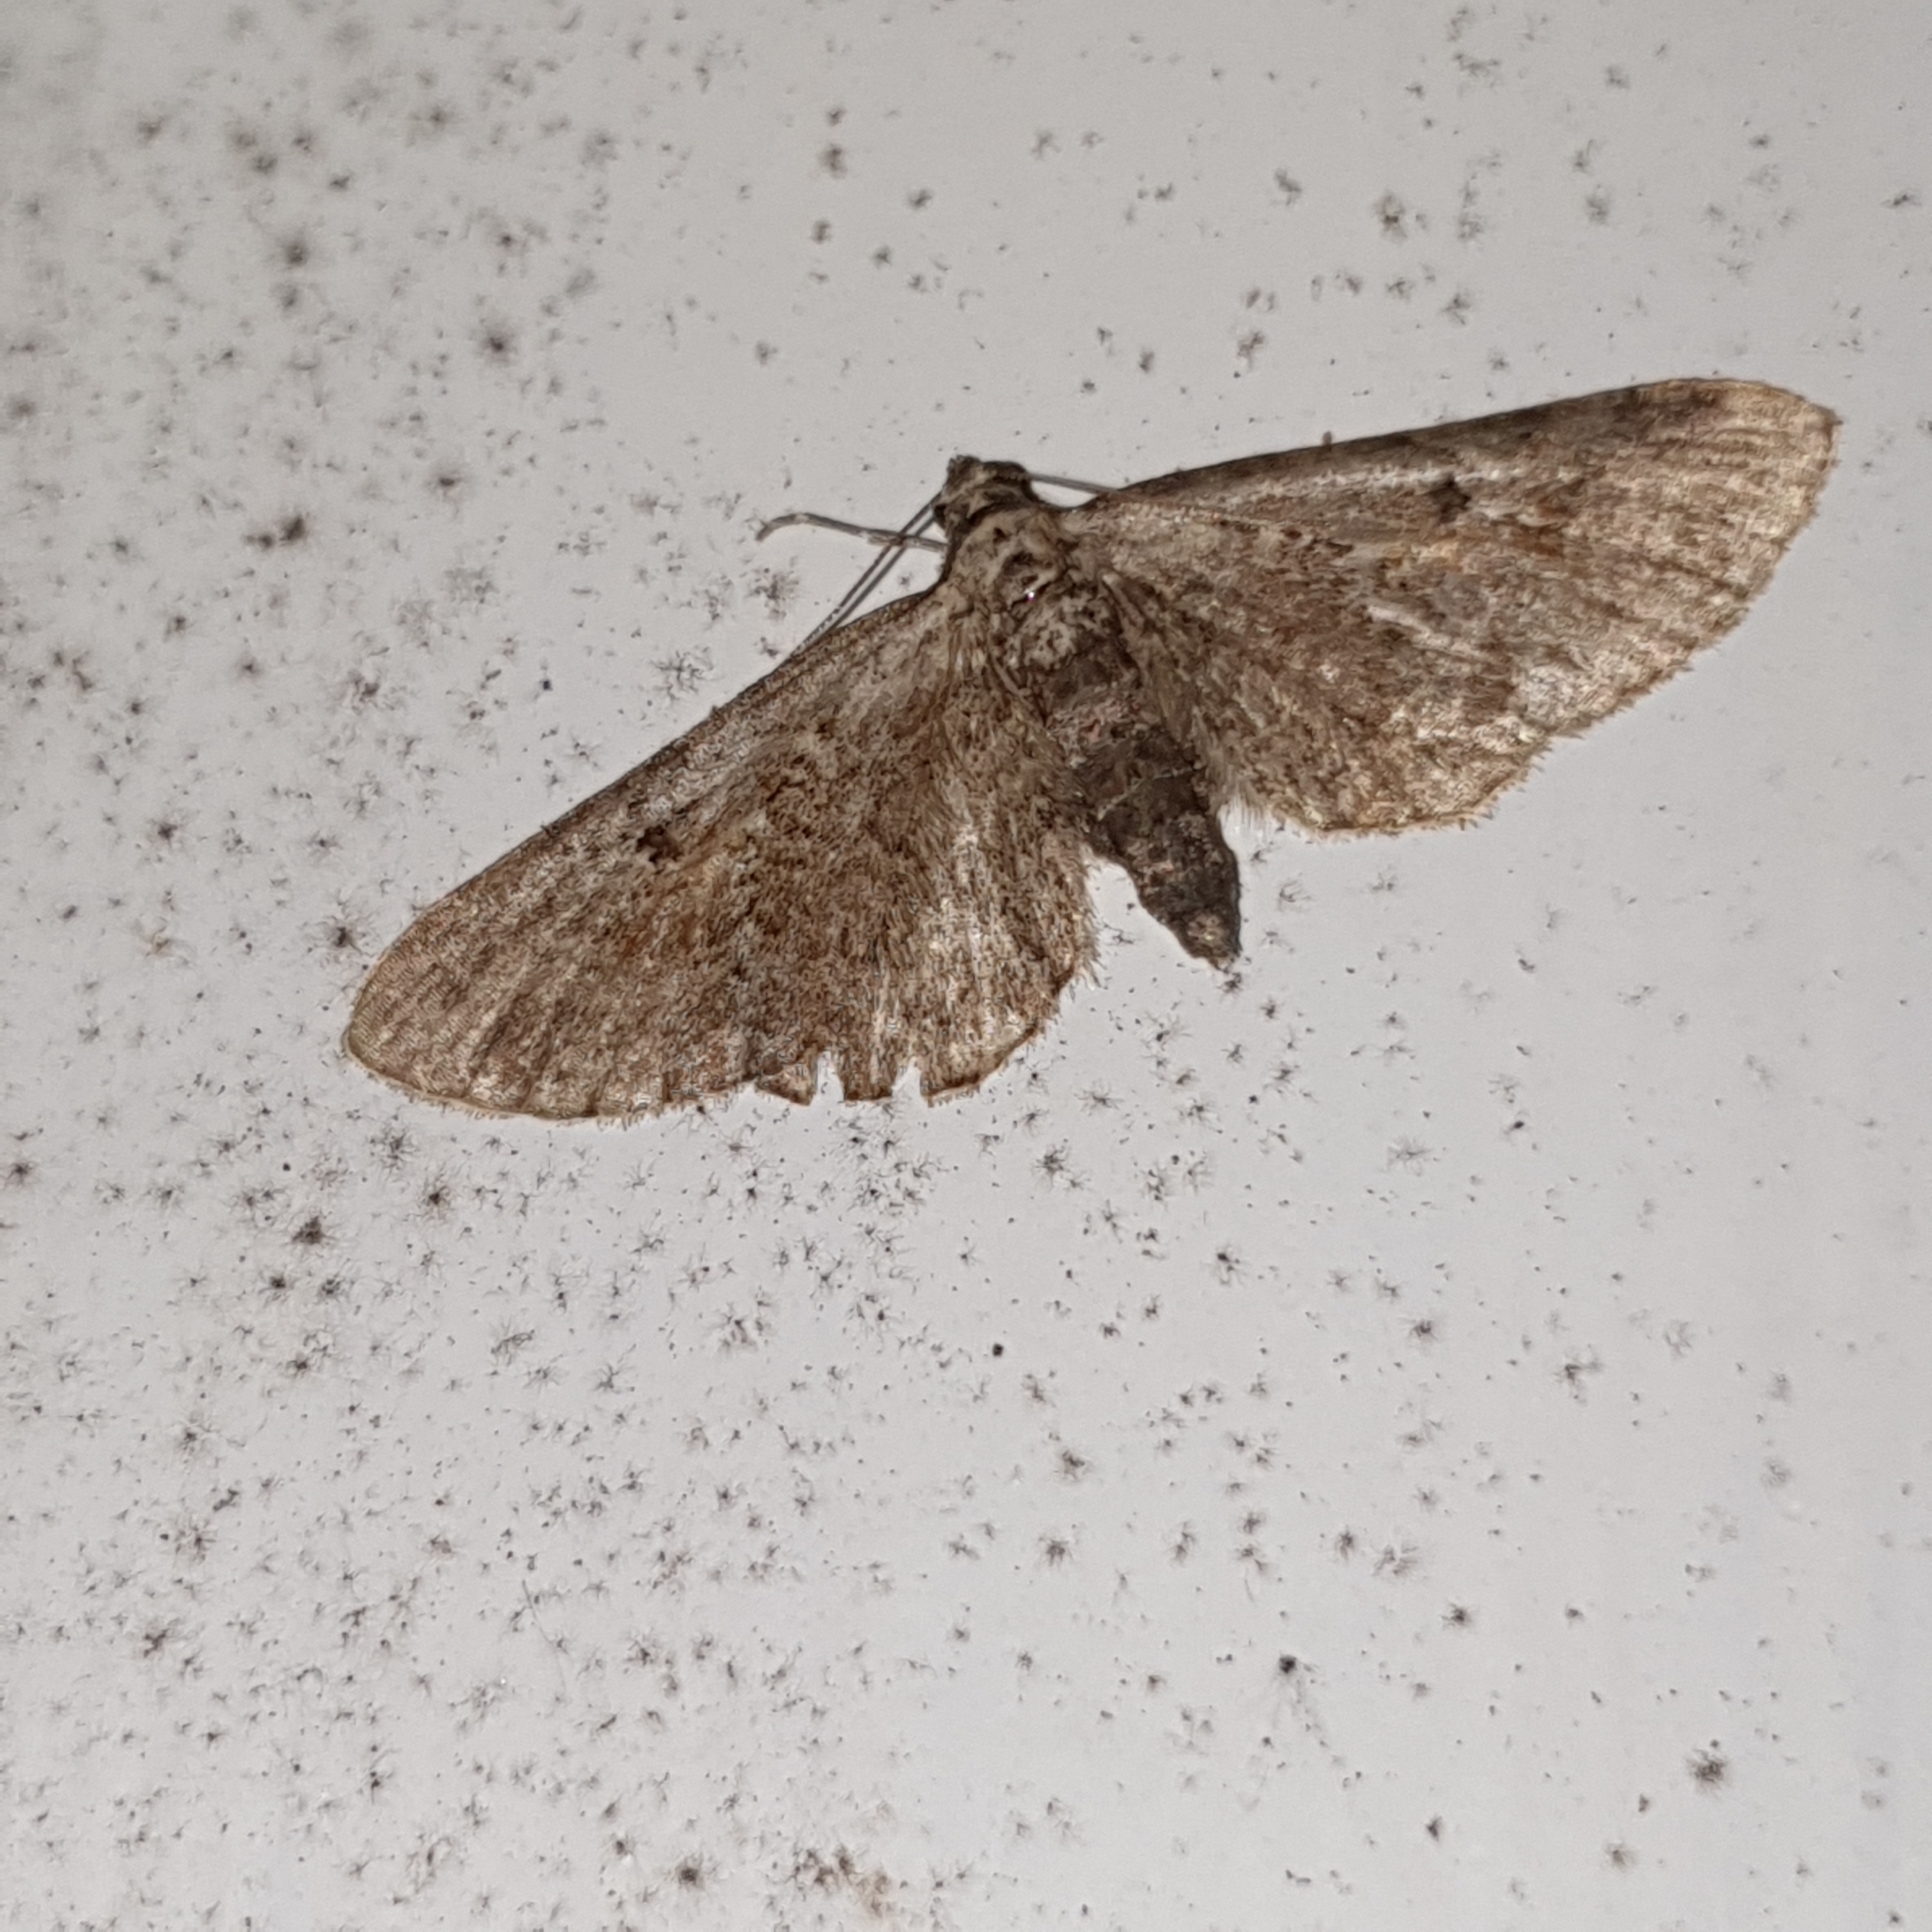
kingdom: Animalia
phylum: Arthropoda
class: Insecta
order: Lepidoptera
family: Geometridae
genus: Eupithecia
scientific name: Eupithecia icterata
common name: Tawny speckled pug
